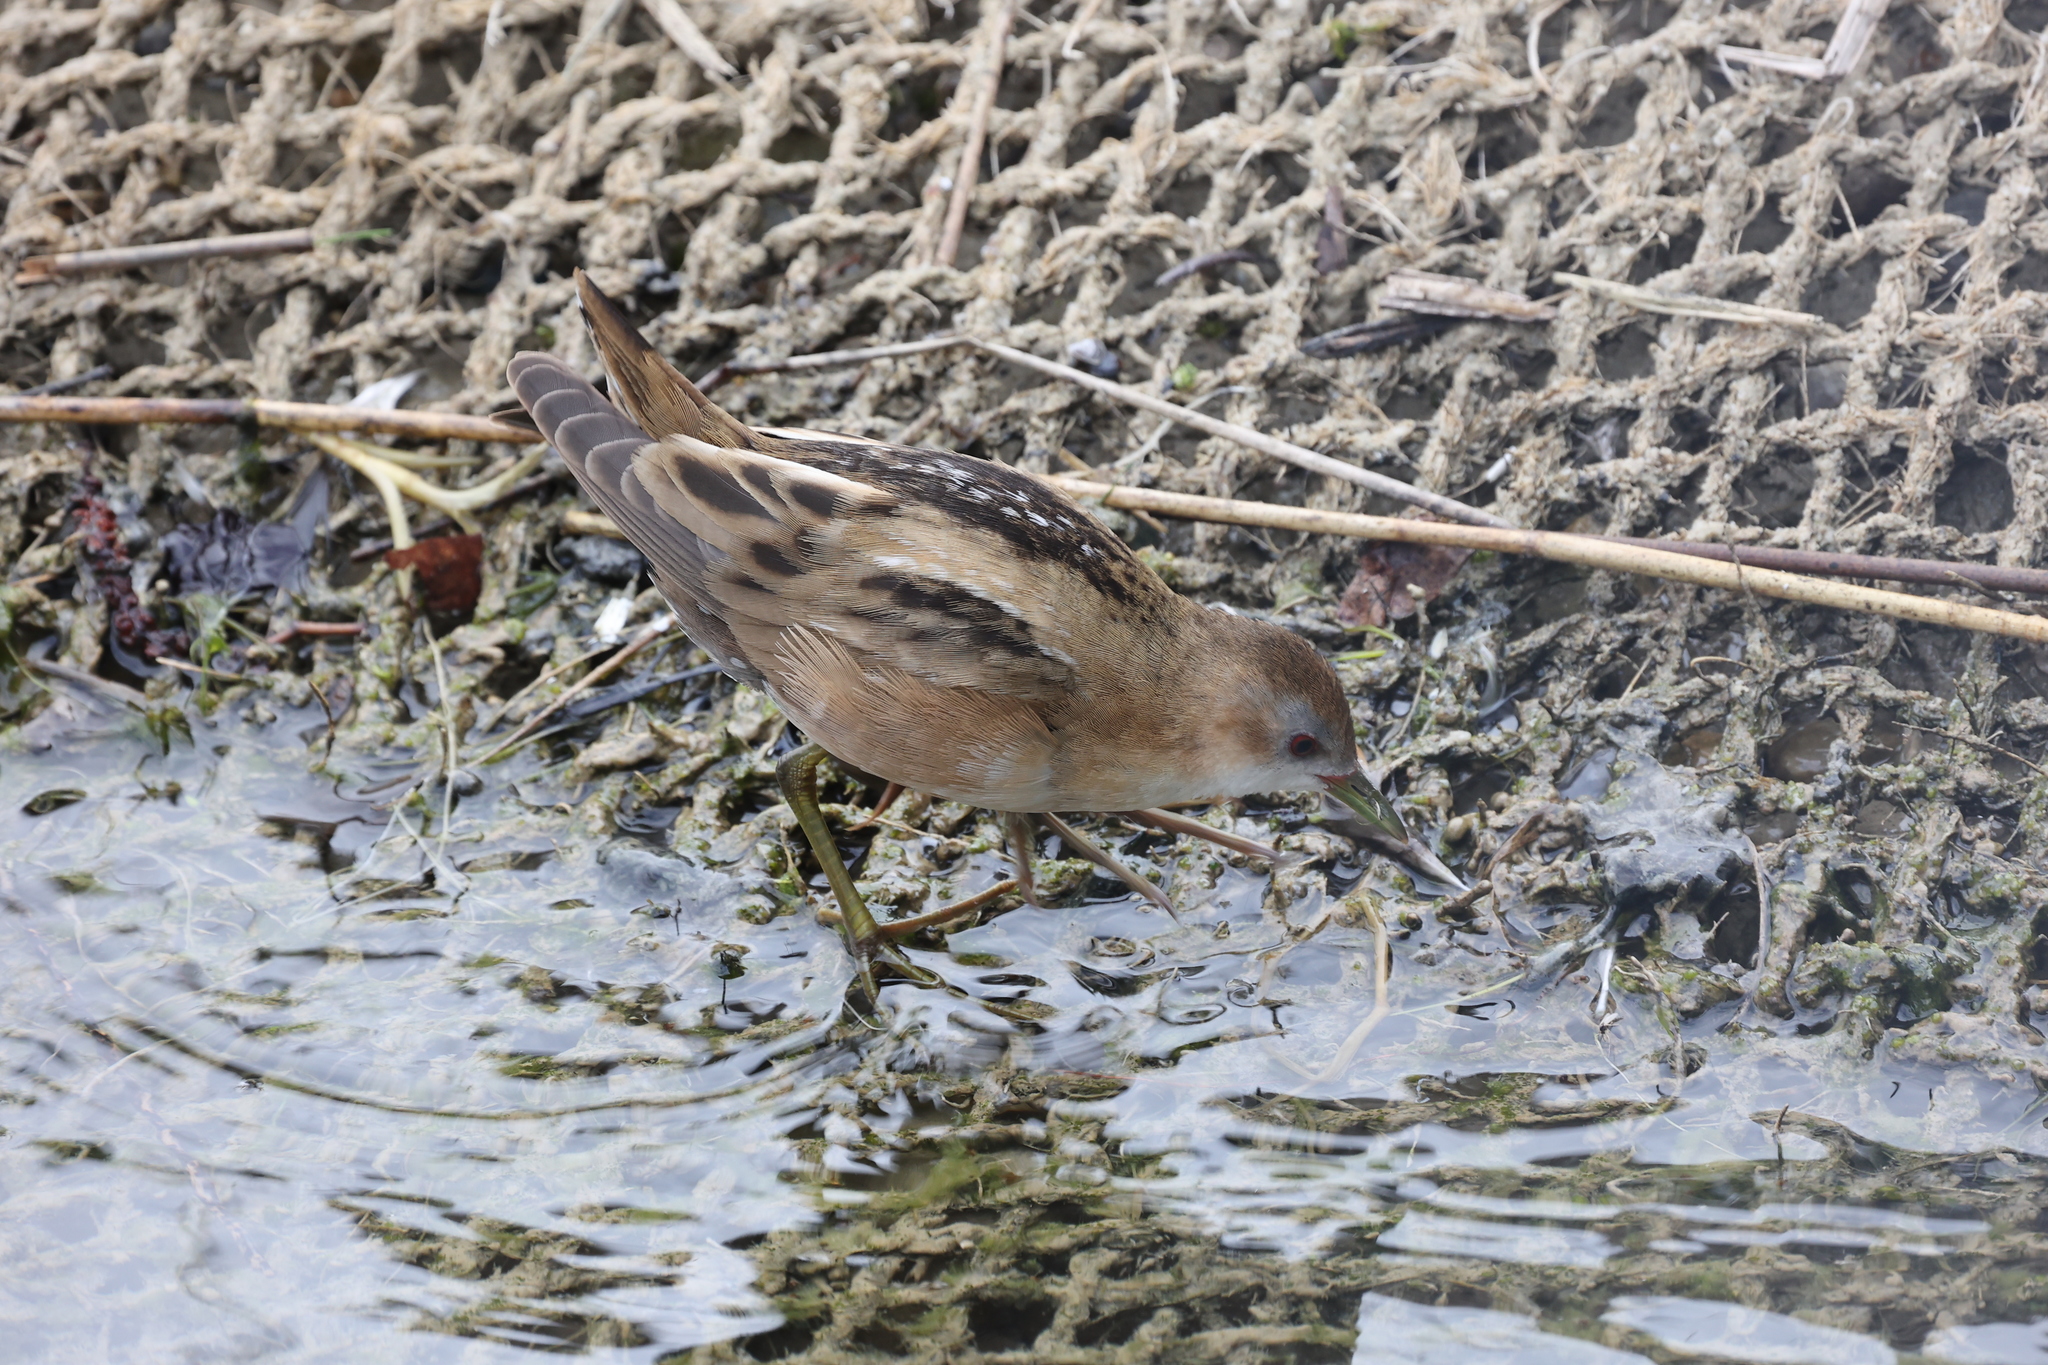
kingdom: Animalia
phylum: Chordata
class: Aves
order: Gruiformes
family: Rallidae
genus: Porzana
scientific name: Porzana parva
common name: Little crake
